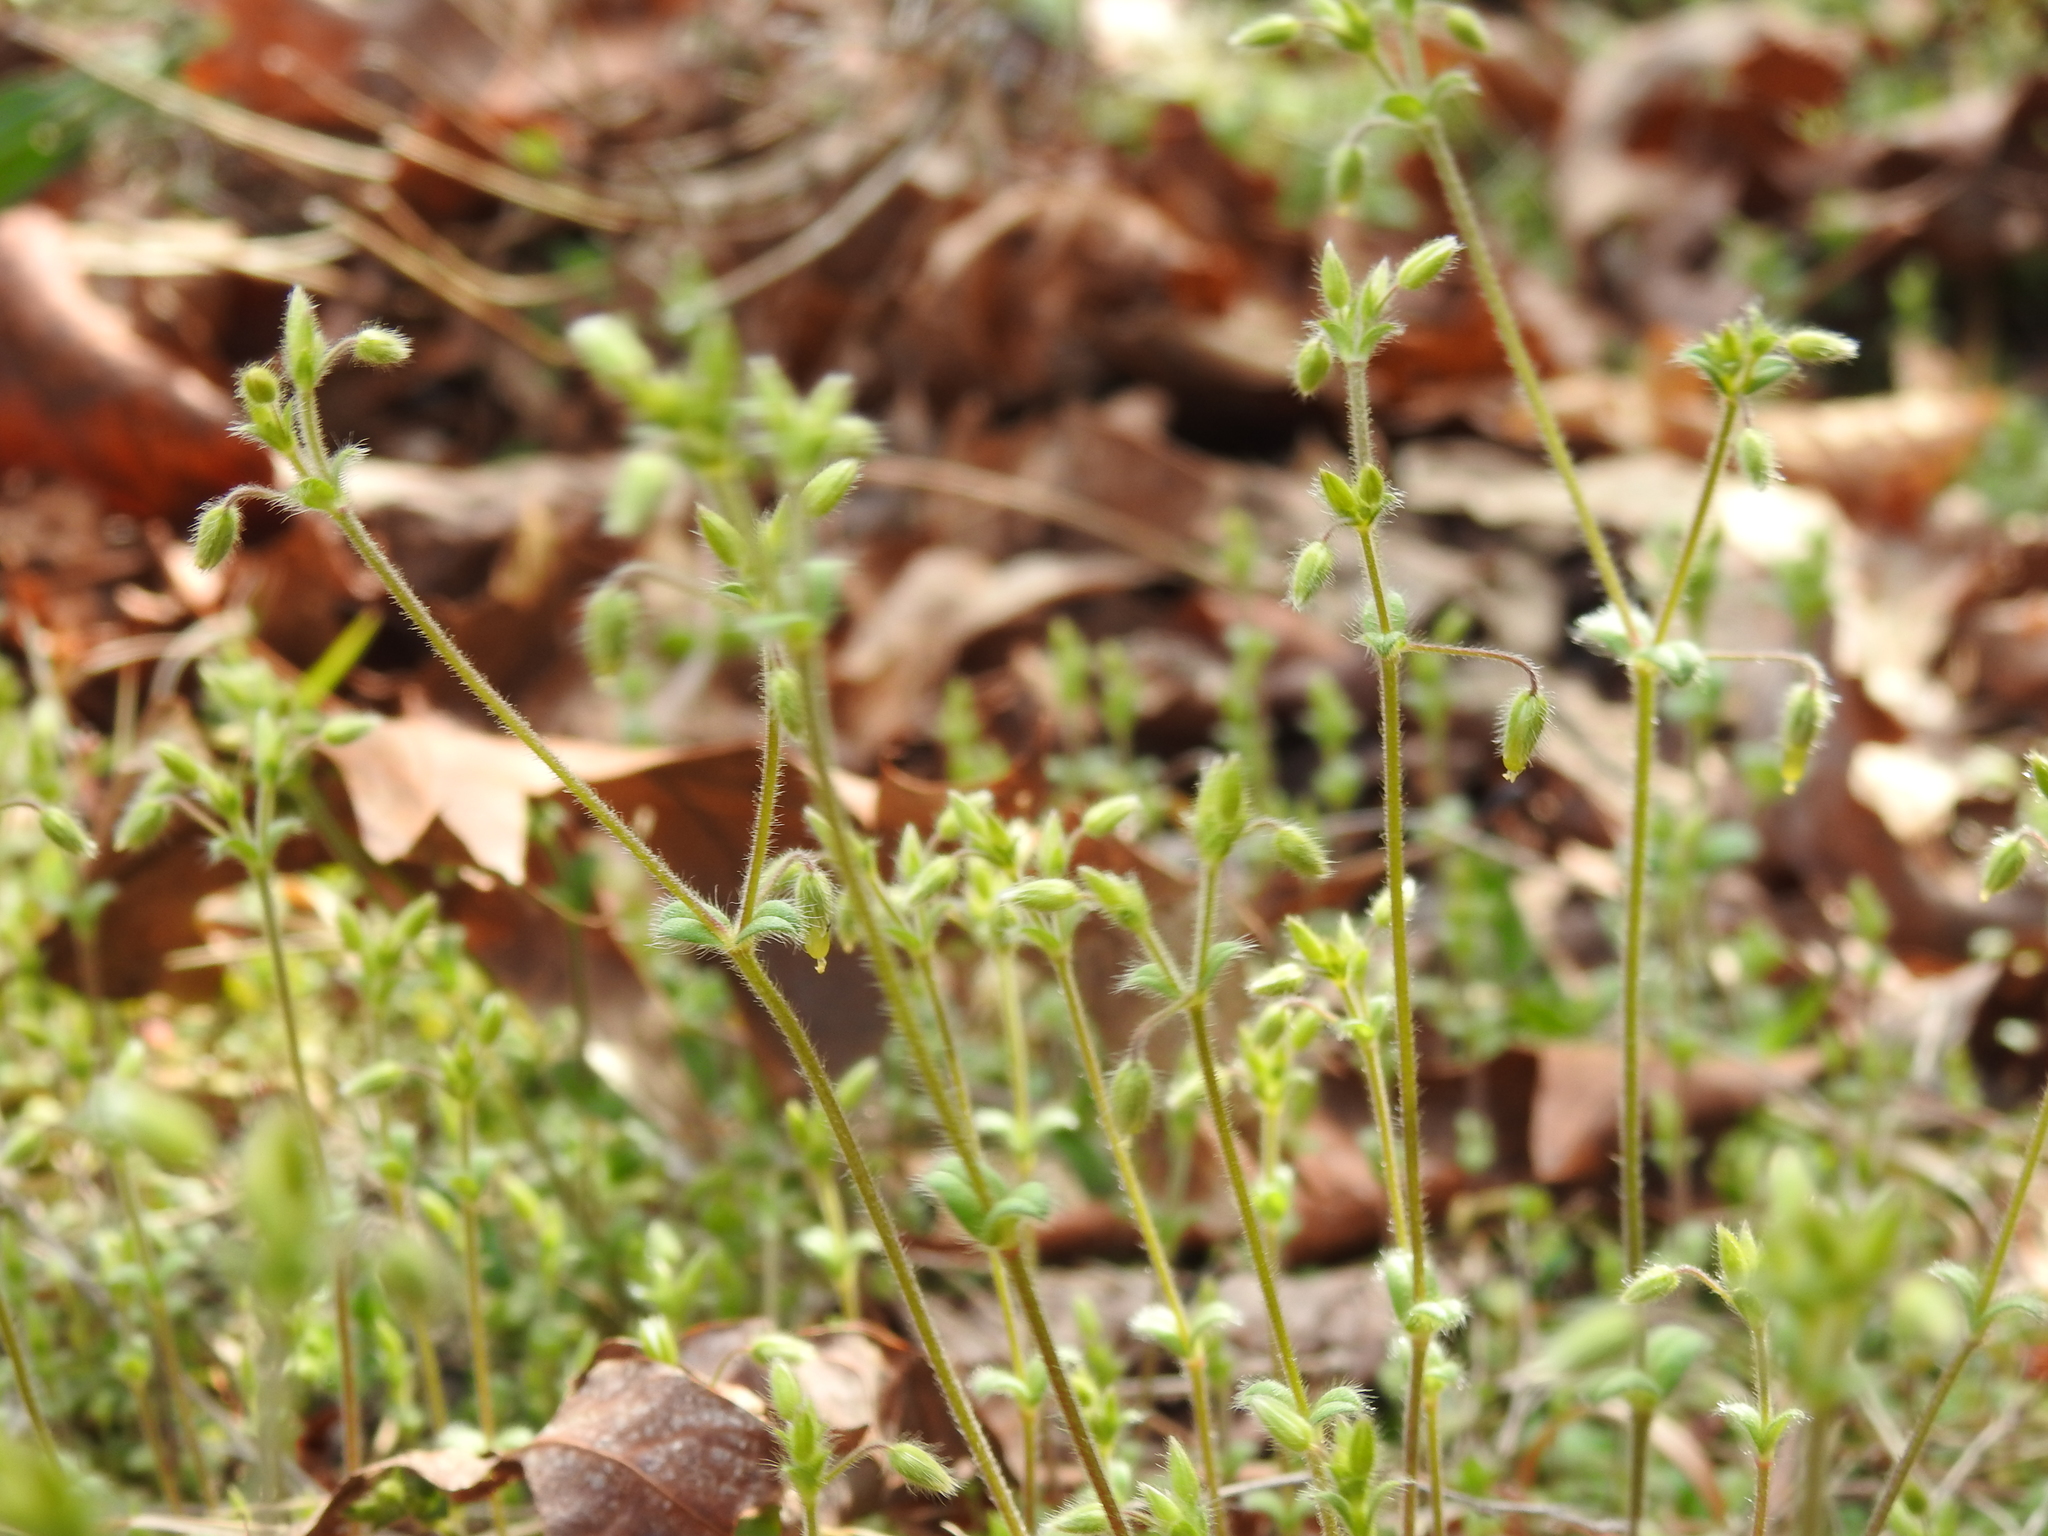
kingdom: Plantae
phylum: Tracheophyta
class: Magnoliopsida
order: Caryophyllales
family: Caryophyllaceae
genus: Cerastium
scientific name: Cerastium brachypetalum
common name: Grey mouse-ear
